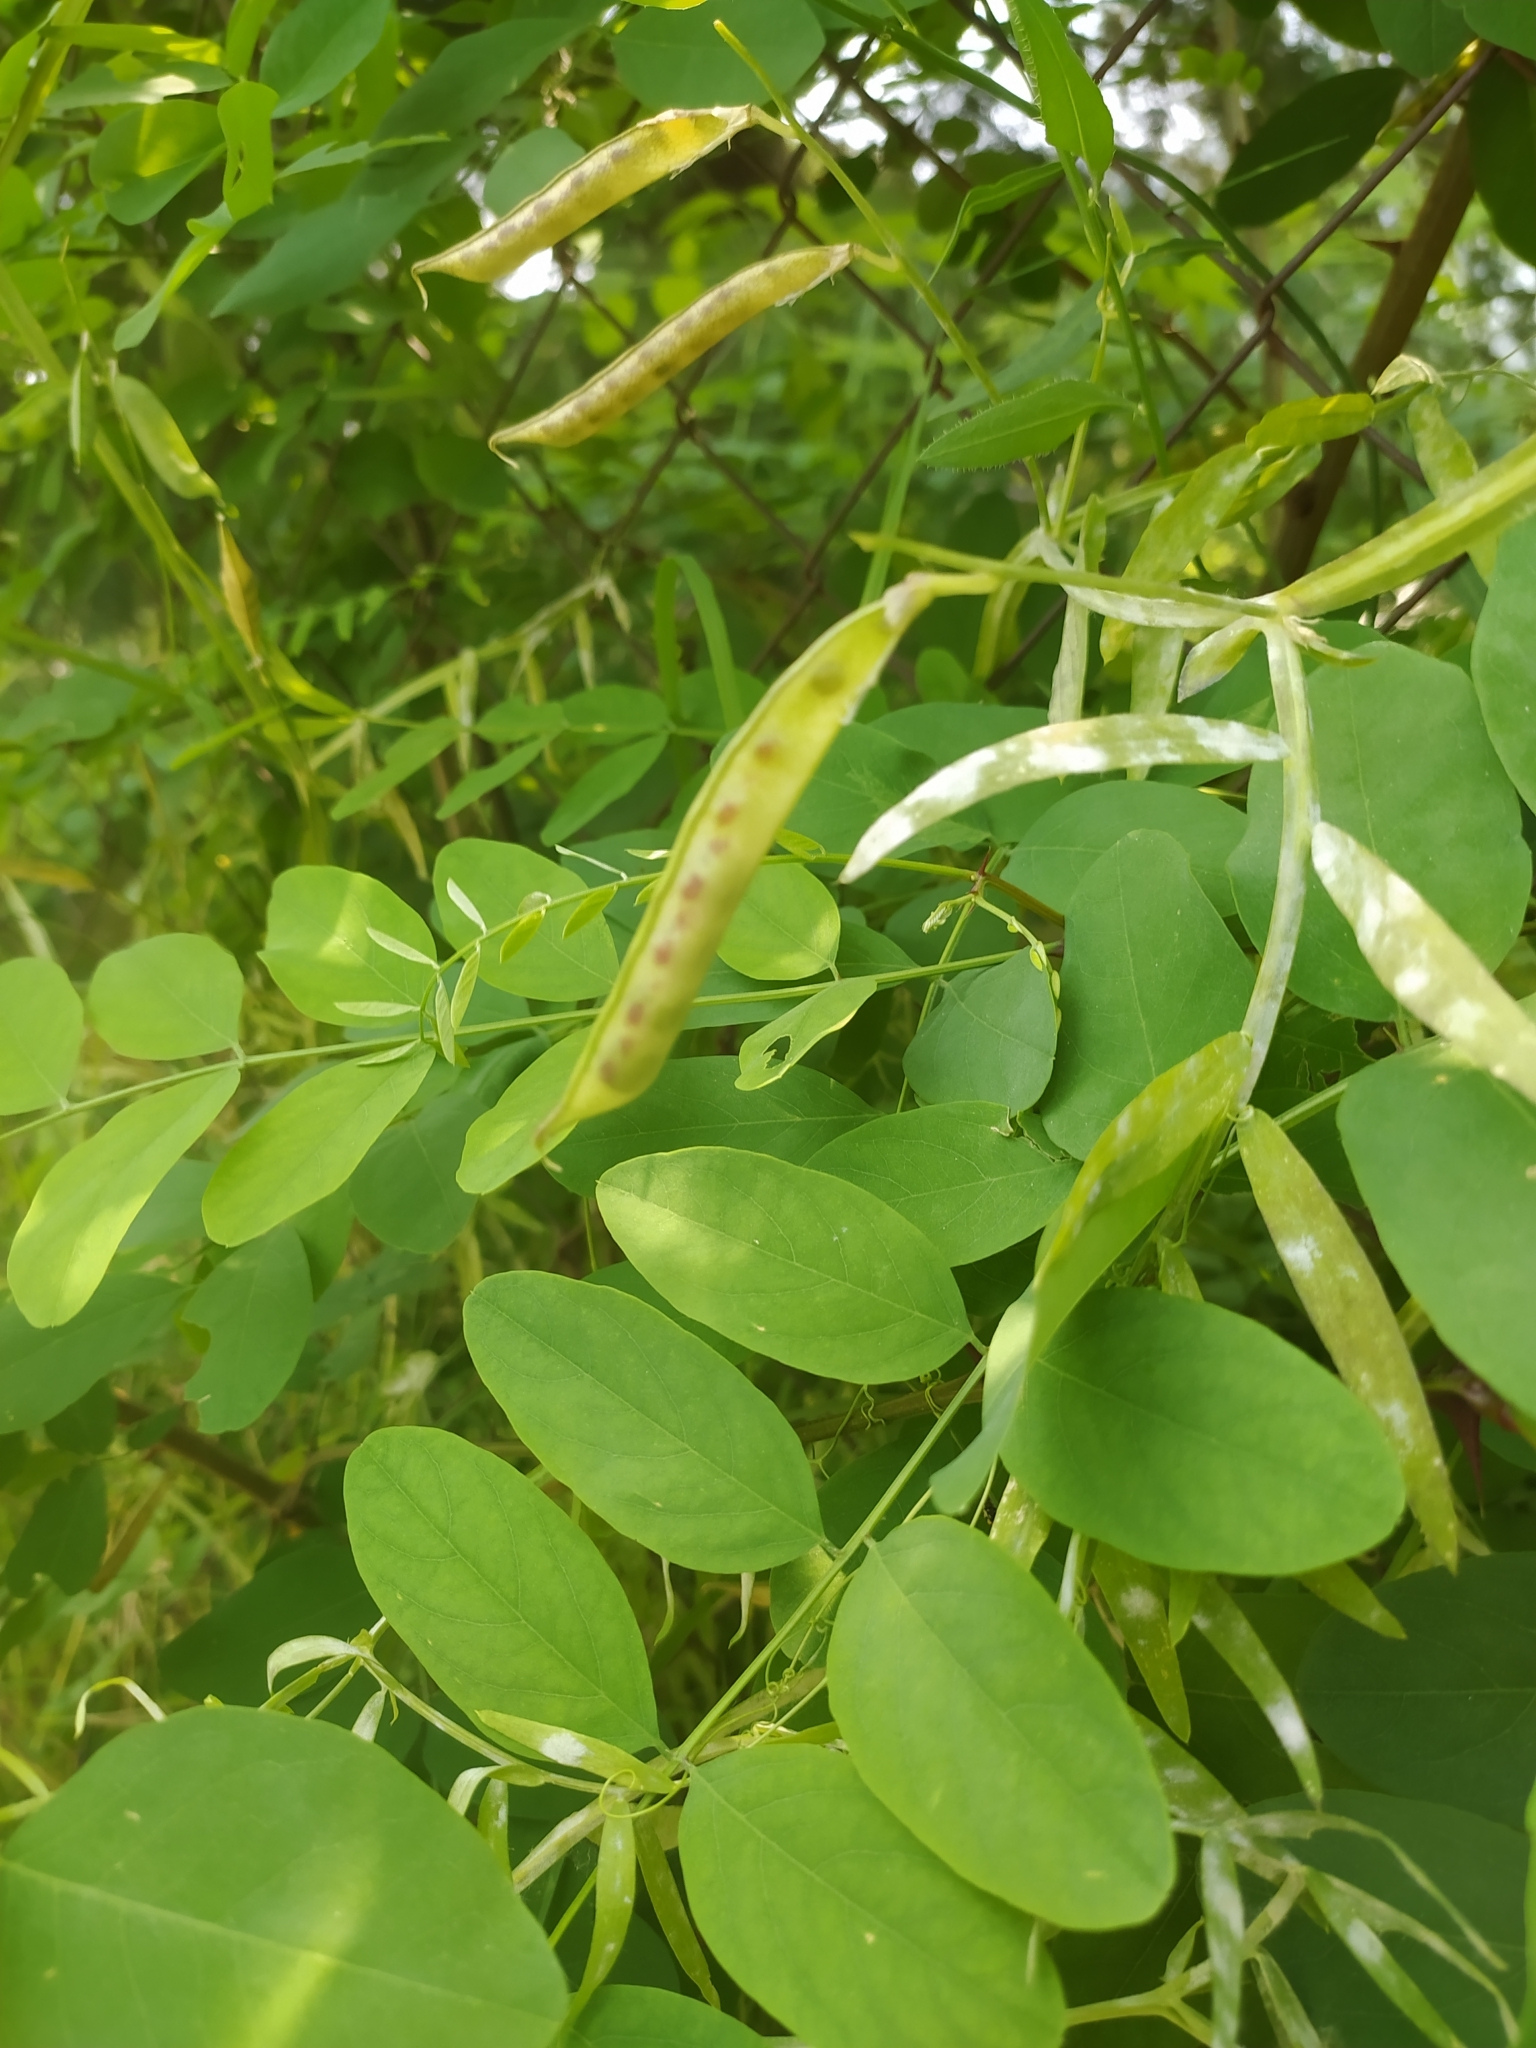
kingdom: Plantae
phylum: Tracheophyta
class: Magnoliopsida
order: Fabales
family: Fabaceae
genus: Robinia
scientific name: Robinia pseudoacacia
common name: Black locust
